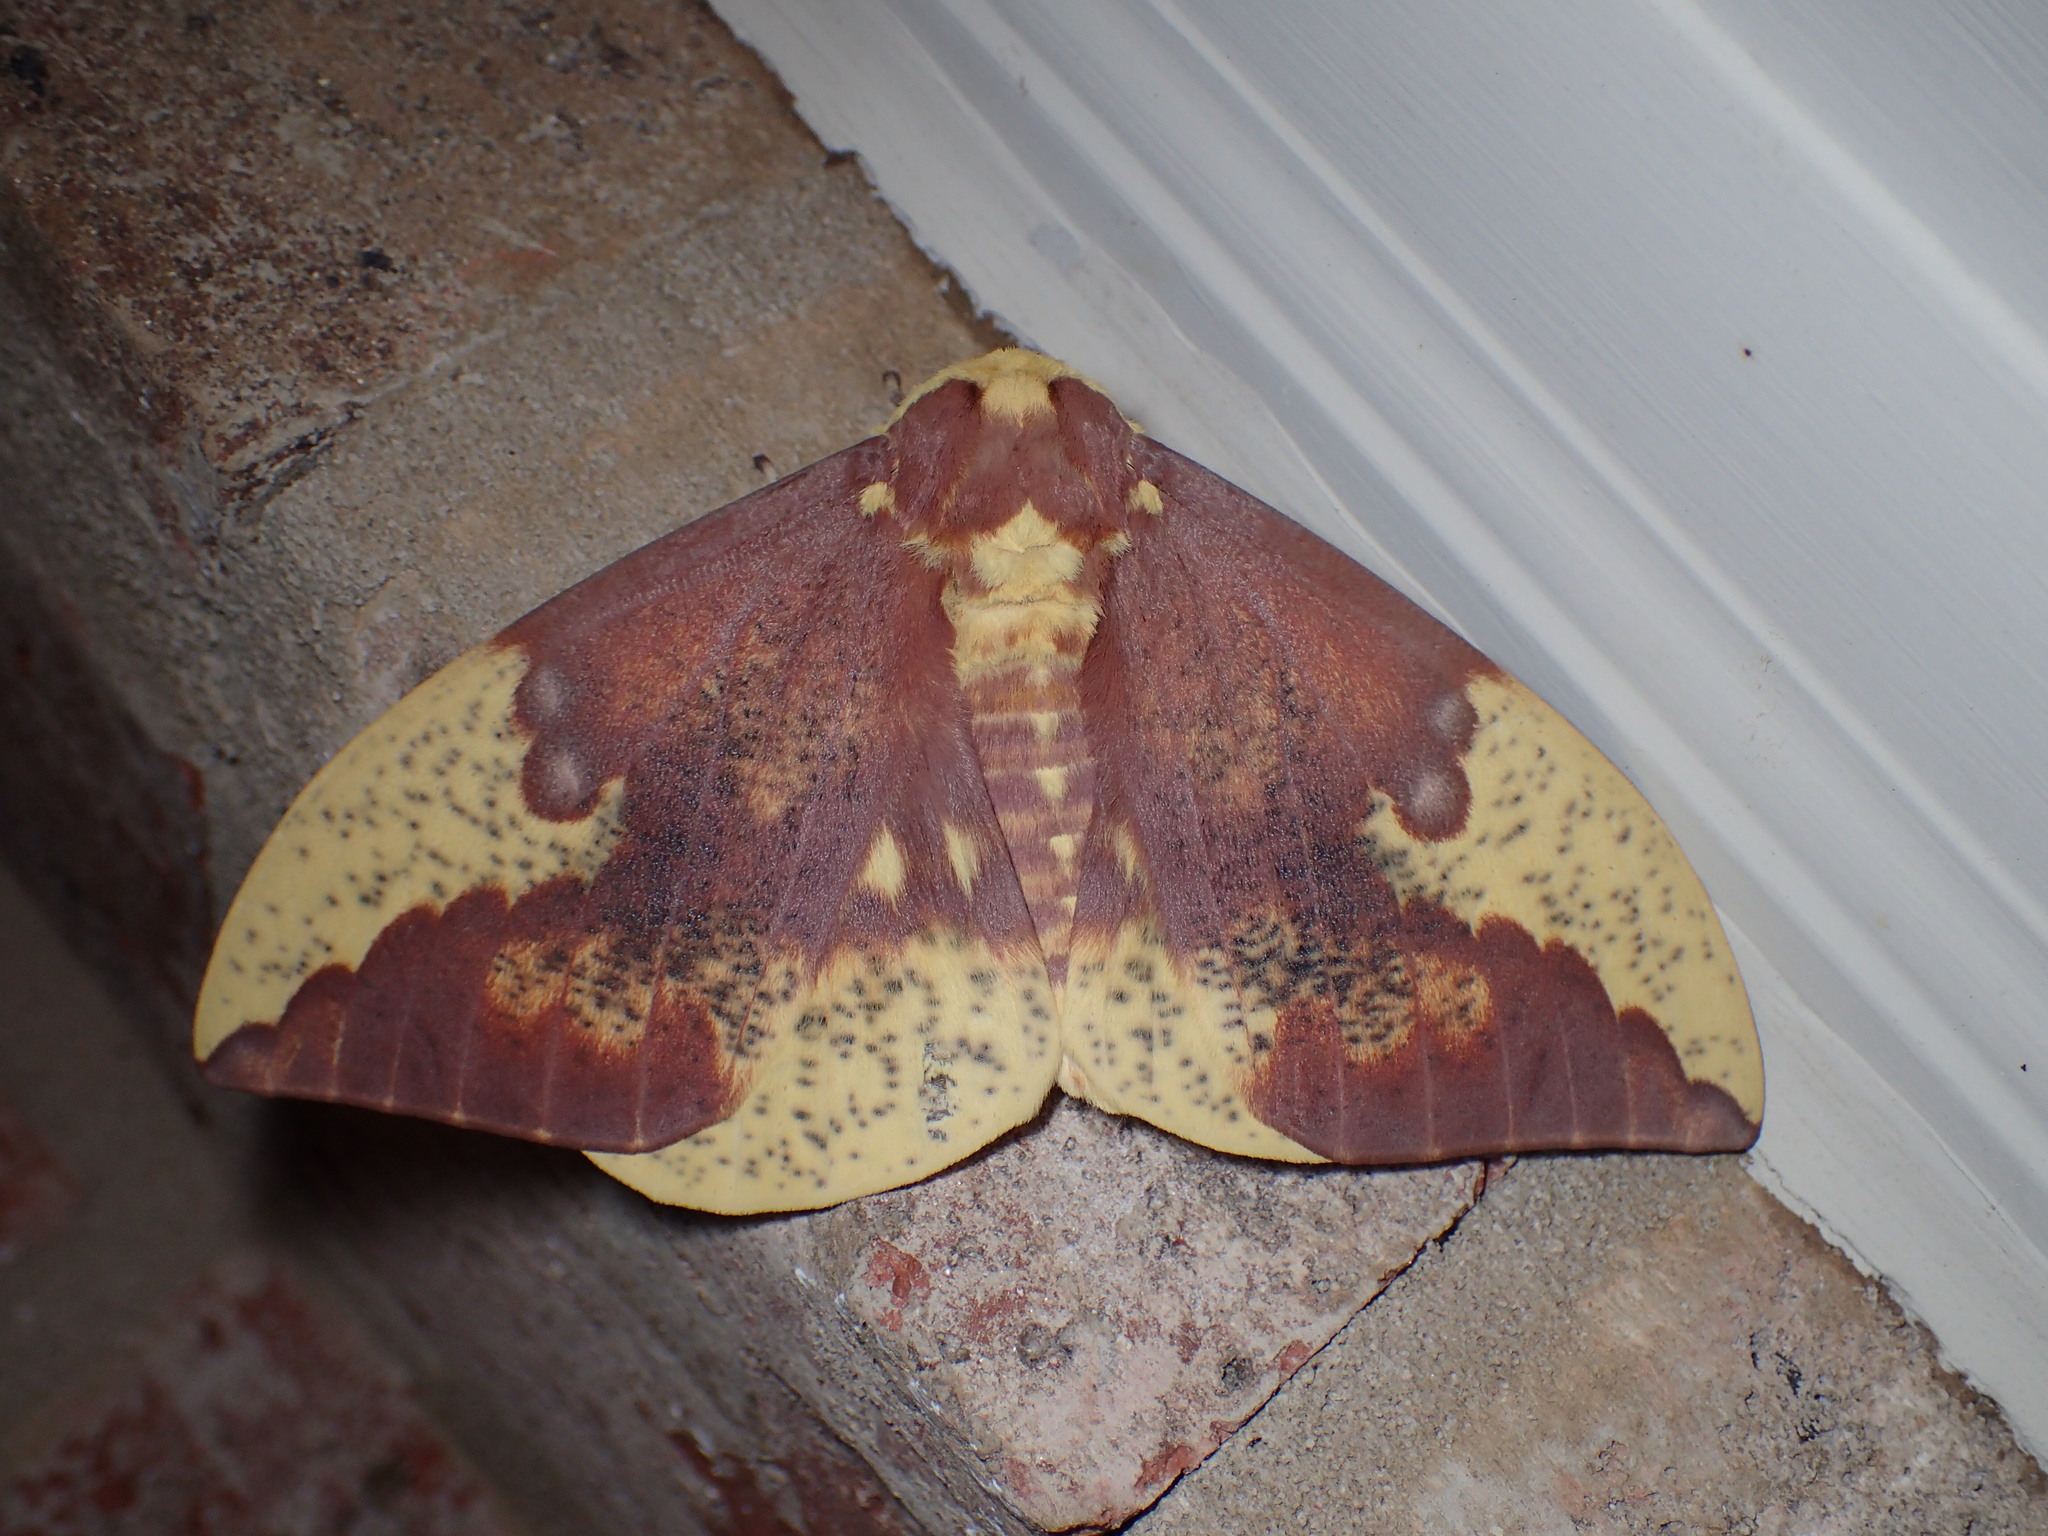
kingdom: Animalia
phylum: Arthropoda
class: Insecta
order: Lepidoptera
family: Saturniidae
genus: Eacles
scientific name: Eacles imperialis
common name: Imperial moth
